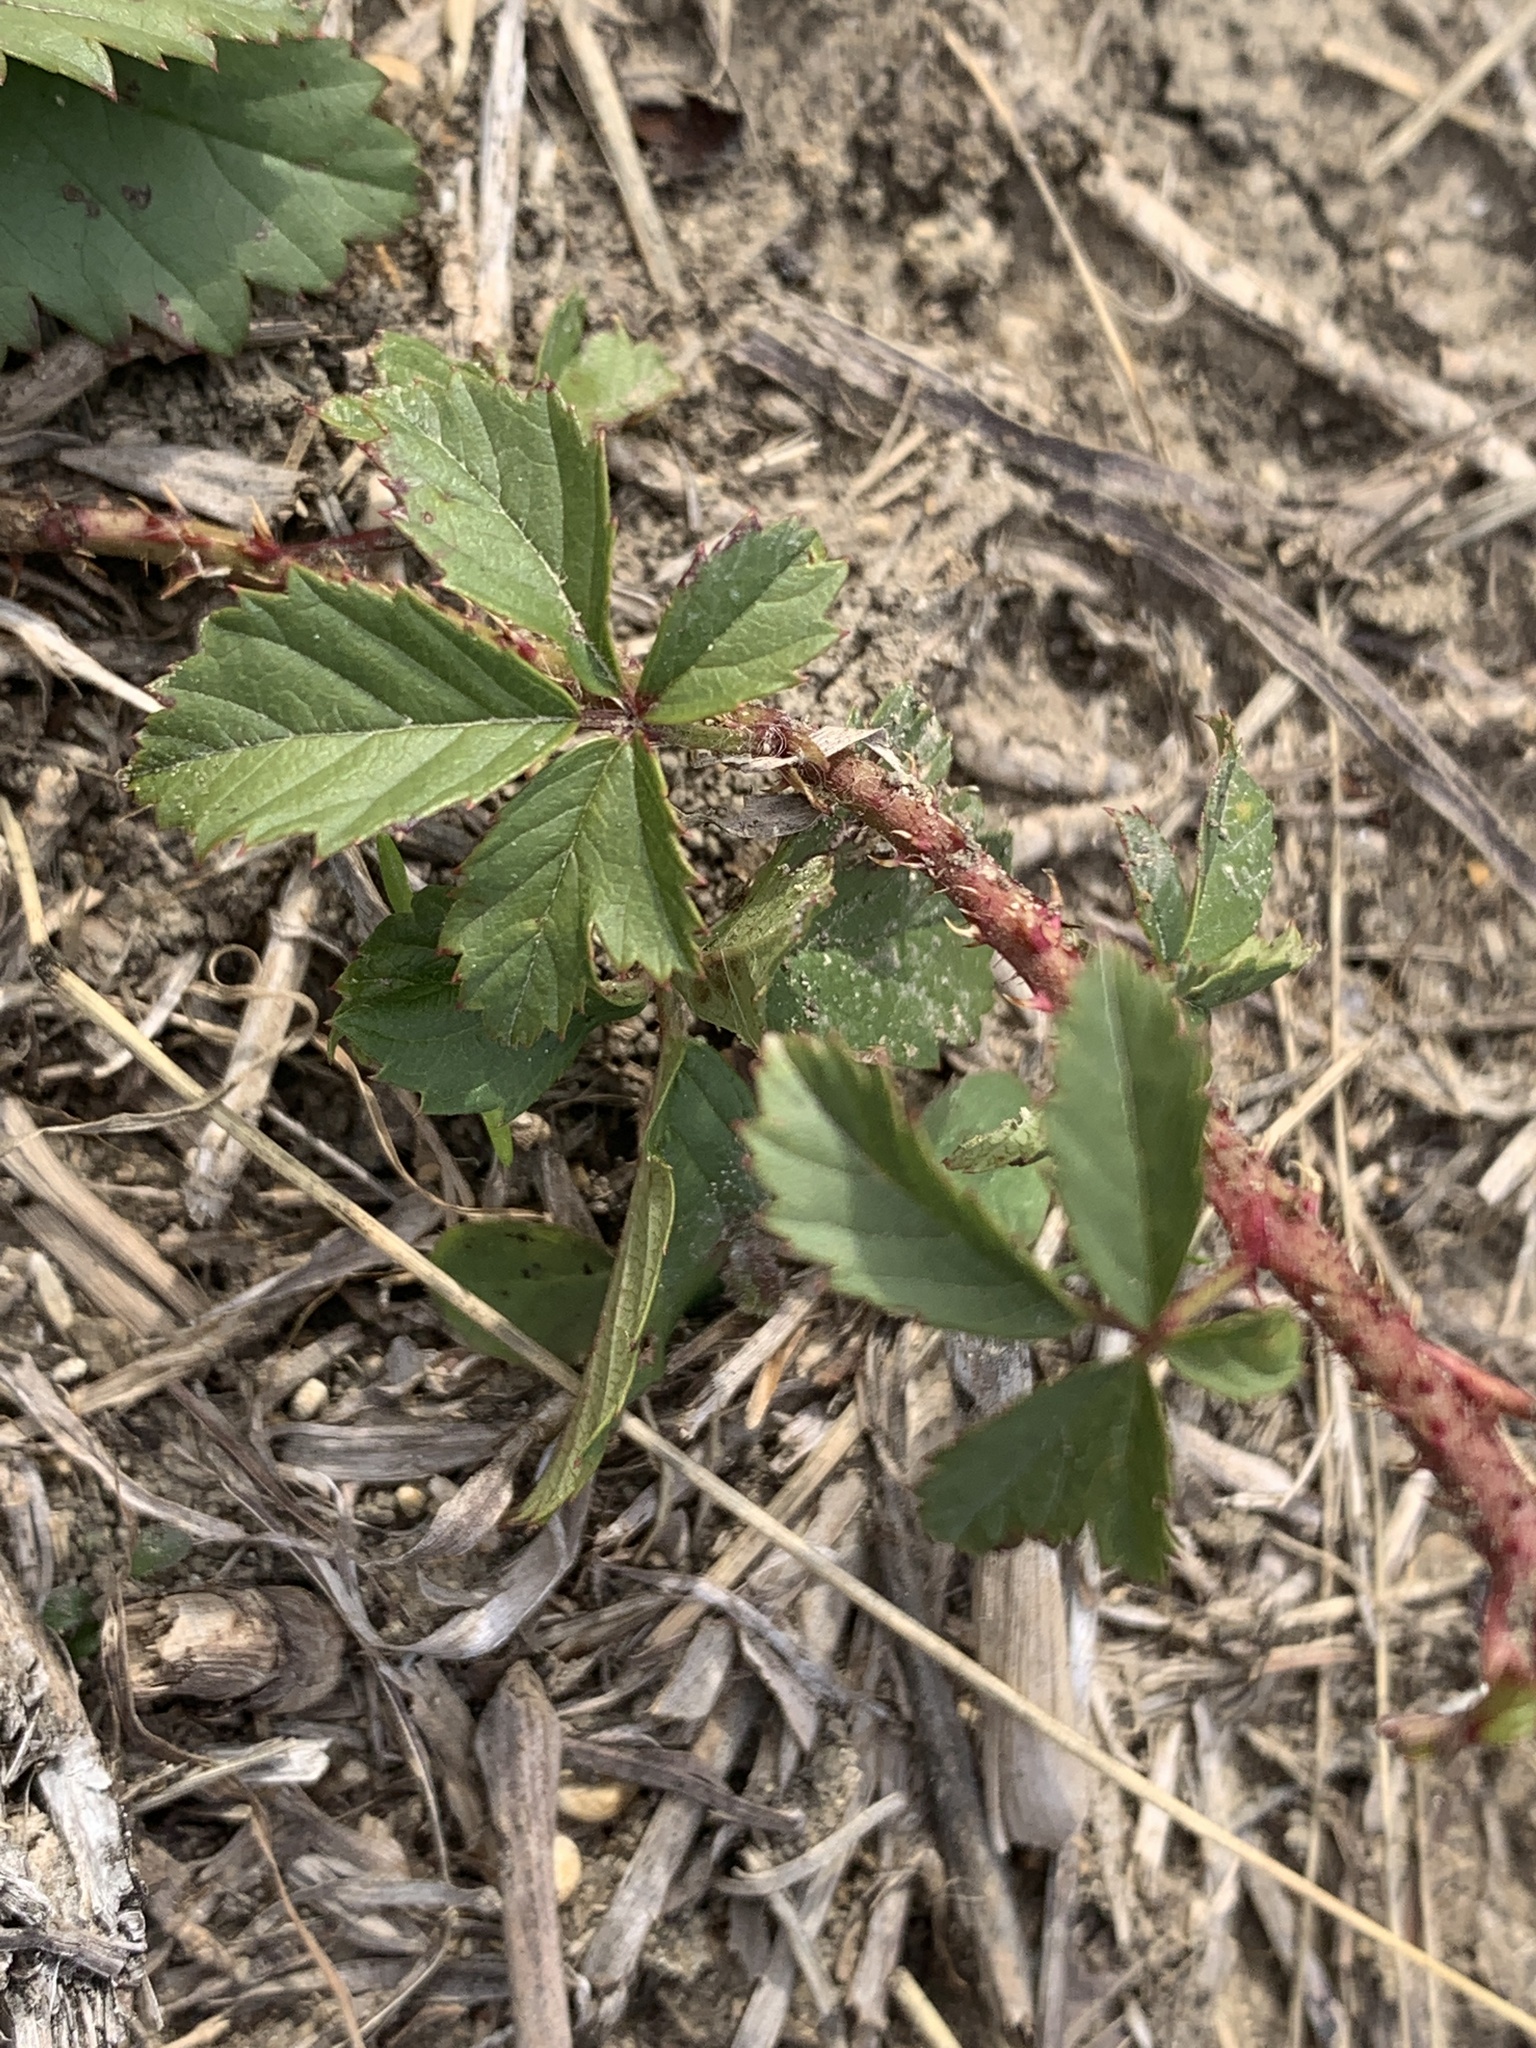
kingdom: Plantae
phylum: Tracheophyta
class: Magnoliopsida
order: Rosales
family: Rosaceae
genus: Rubus
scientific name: Rubus trivialis
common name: Southern dewberry
